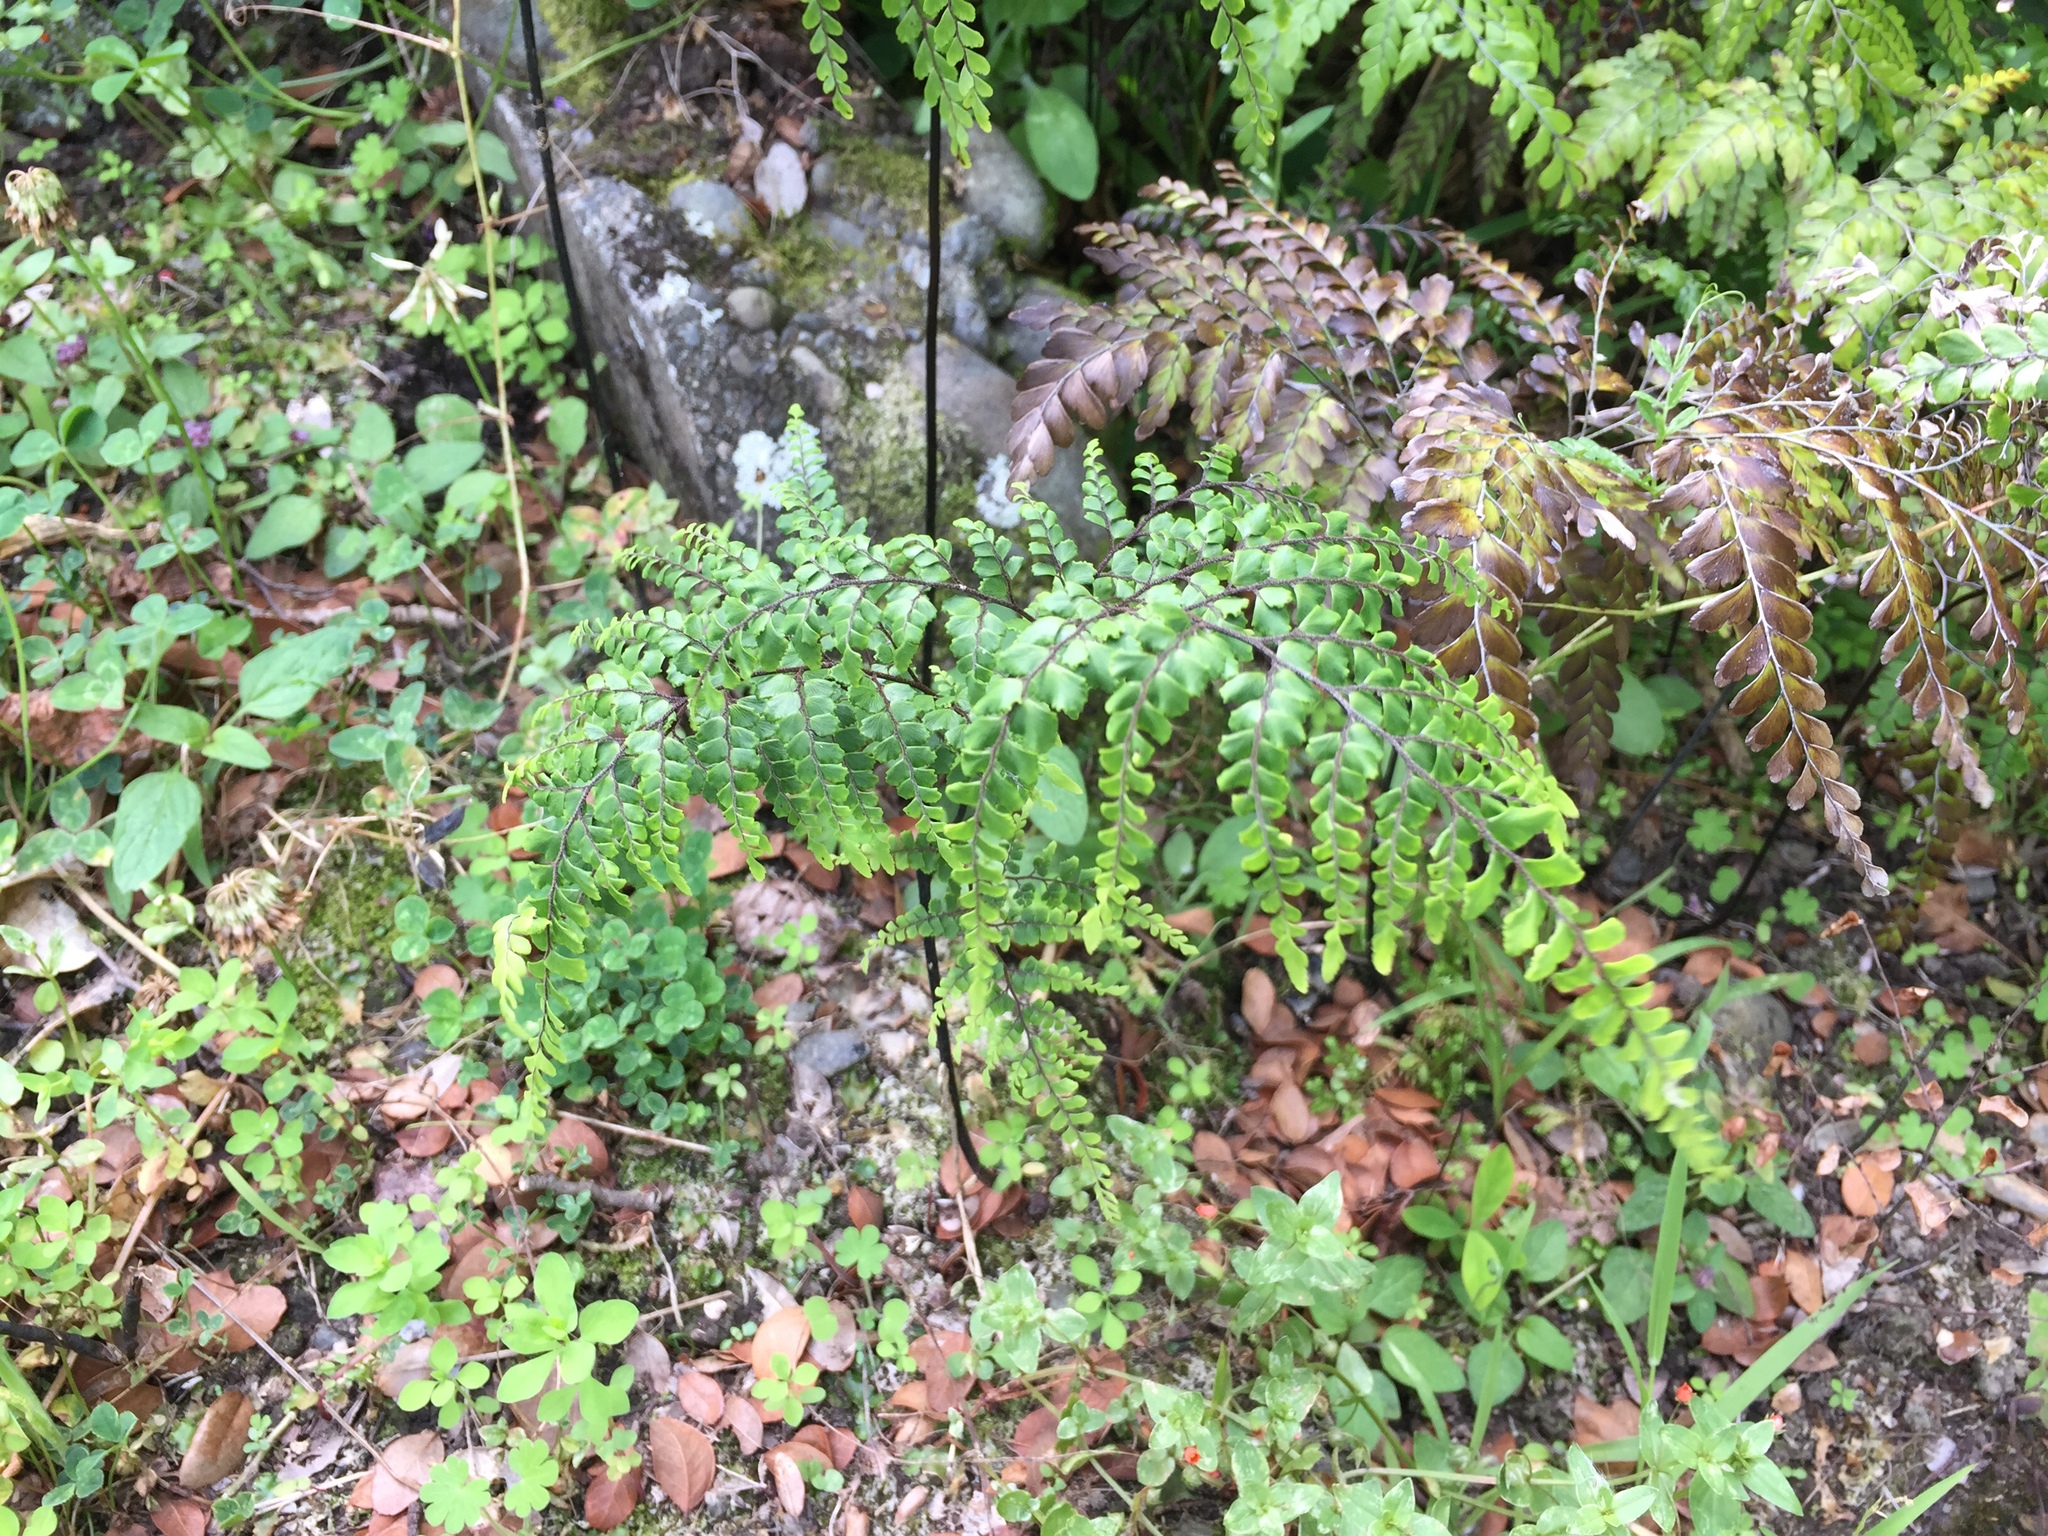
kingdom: Plantae
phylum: Tracheophyta
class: Polypodiopsida
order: Polypodiales
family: Pteridaceae
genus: Adiantum
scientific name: Adiantum formosum
